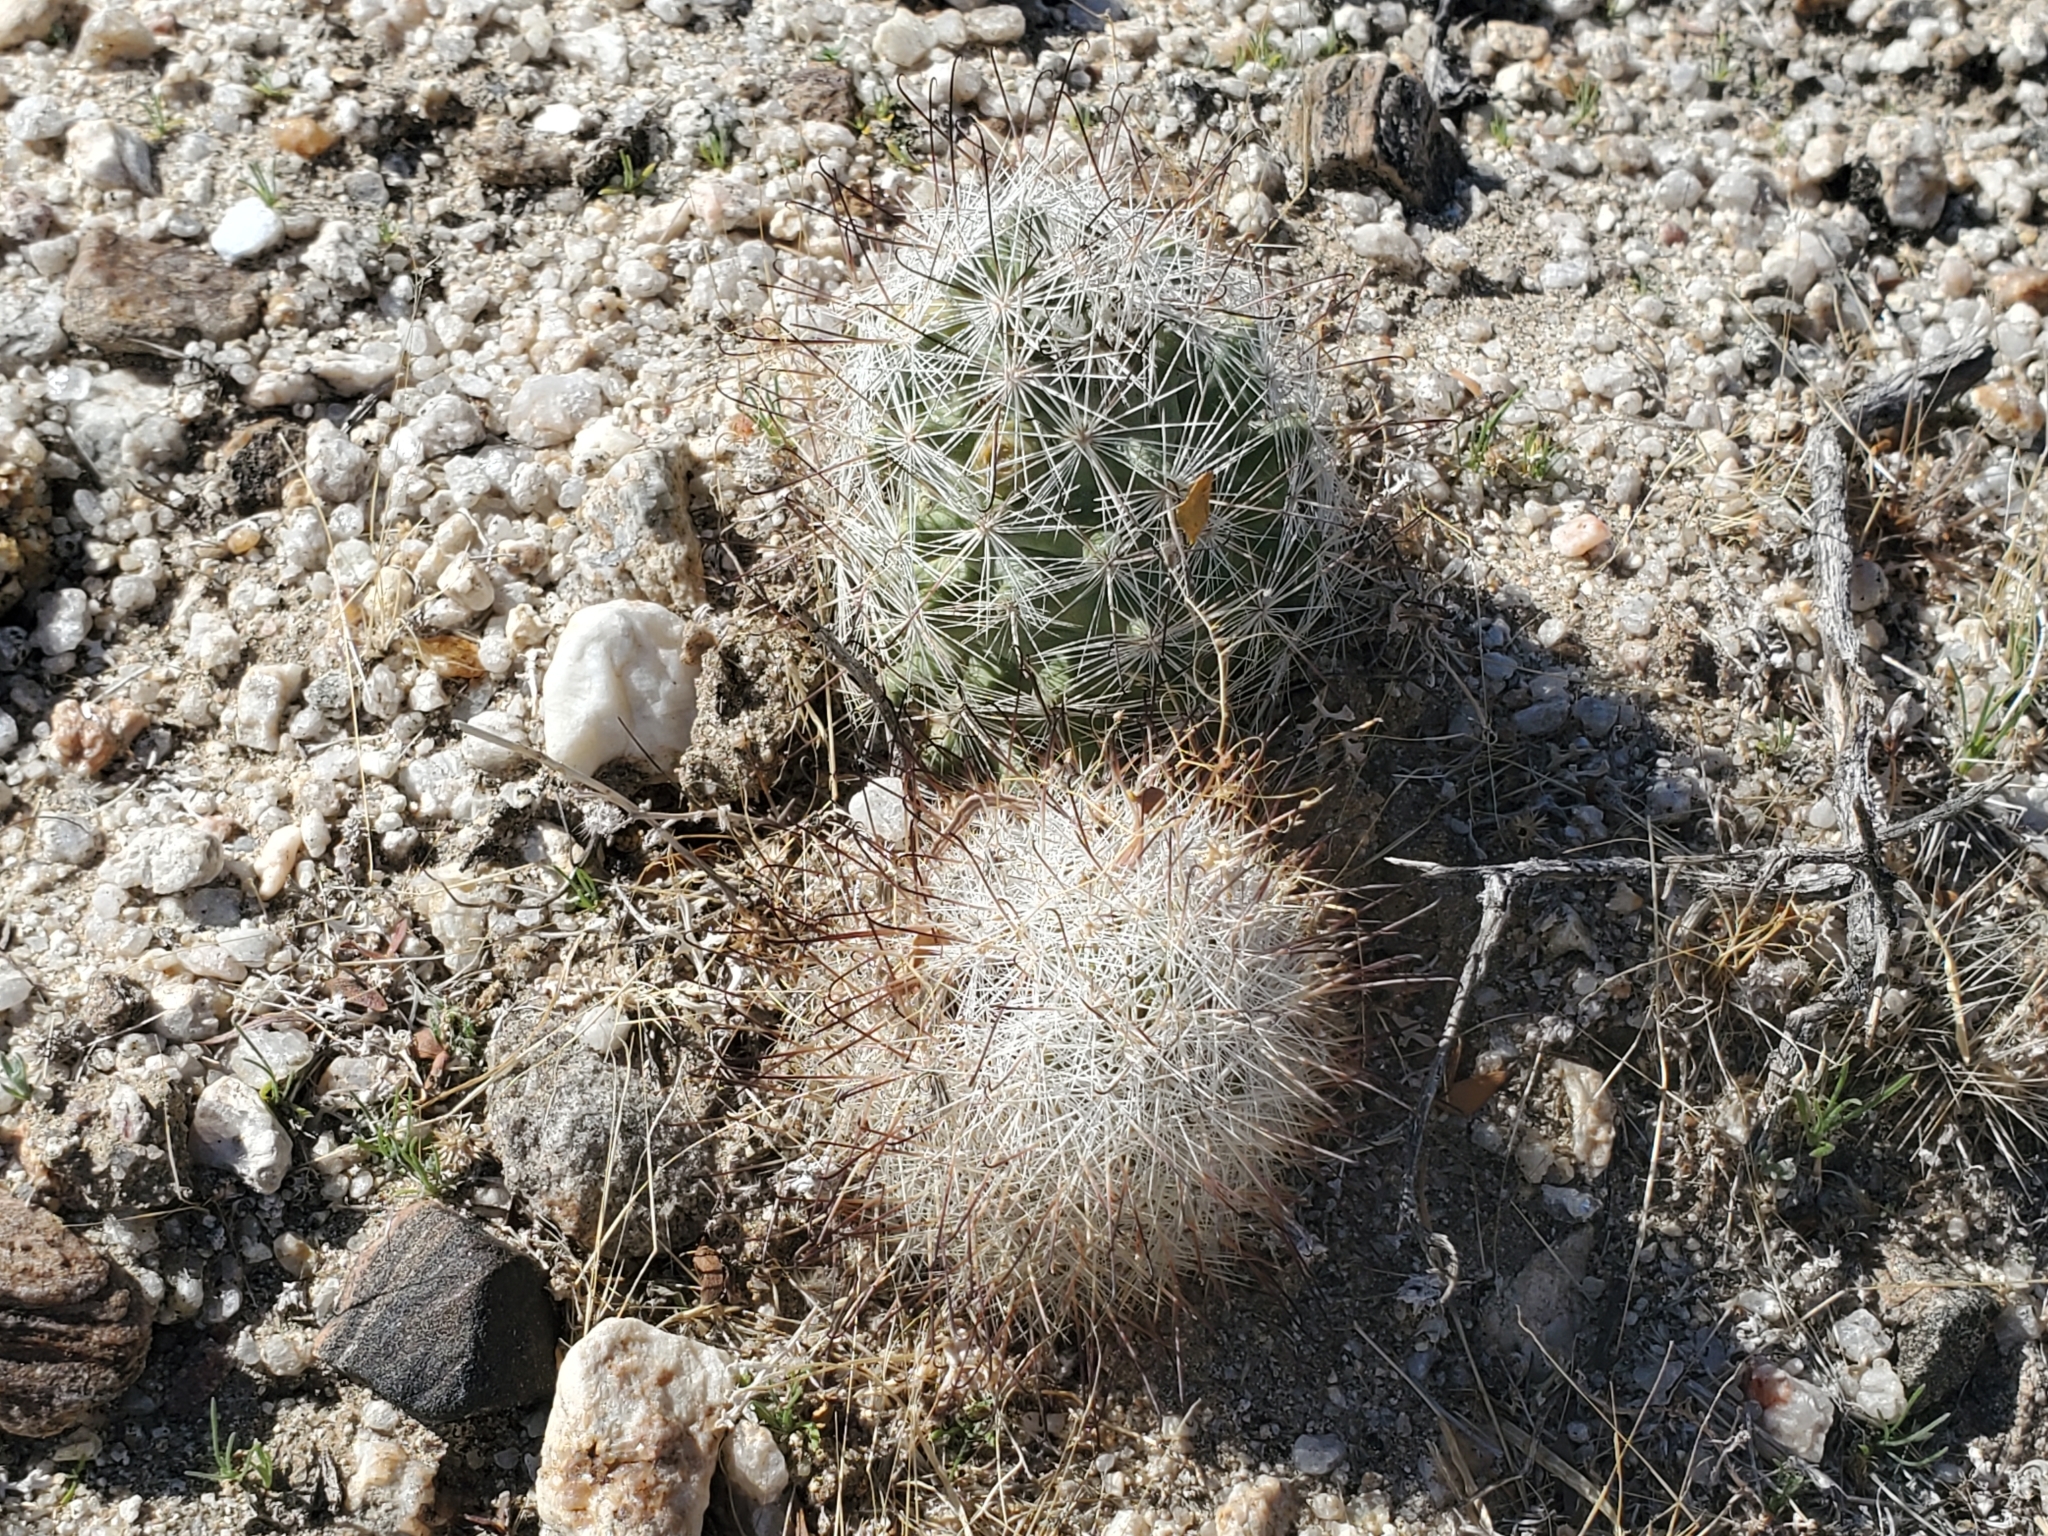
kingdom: Plantae
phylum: Tracheophyta
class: Magnoliopsida
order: Caryophyllales
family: Cactaceae
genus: Cochemiea
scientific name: Cochemiea tetrancistra
